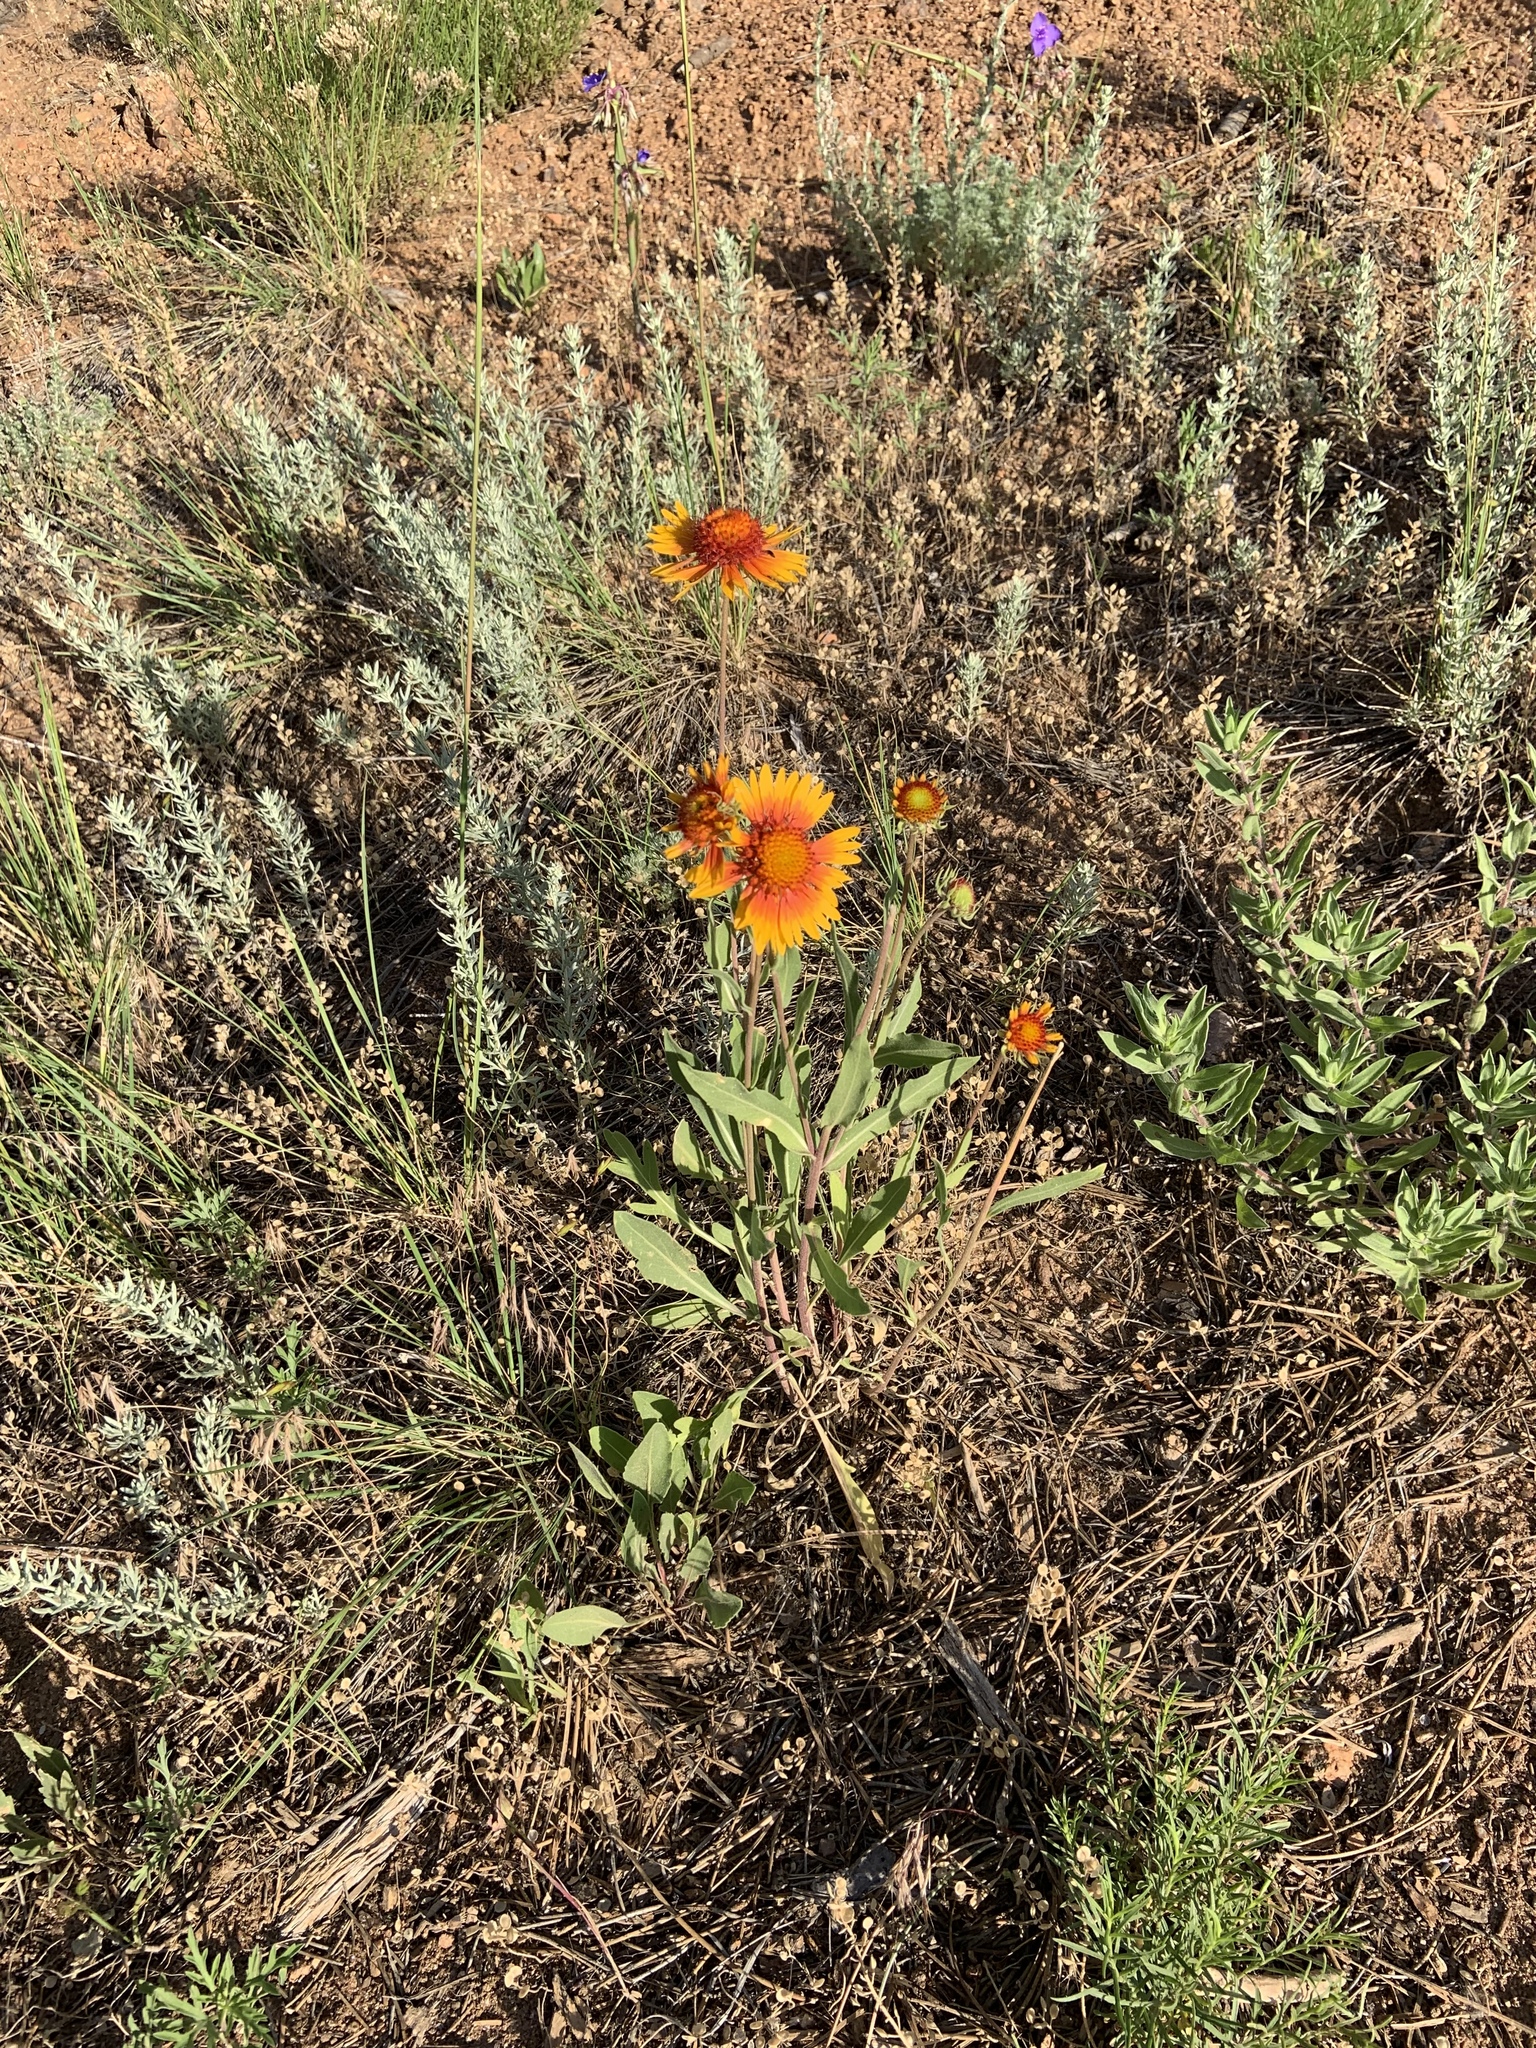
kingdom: Plantae
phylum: Tracheophyta
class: Magnoliopsida
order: Asterales
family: Asteraceae
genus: Gaillardia
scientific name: Gaillardia pulchella
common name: Firewheel
